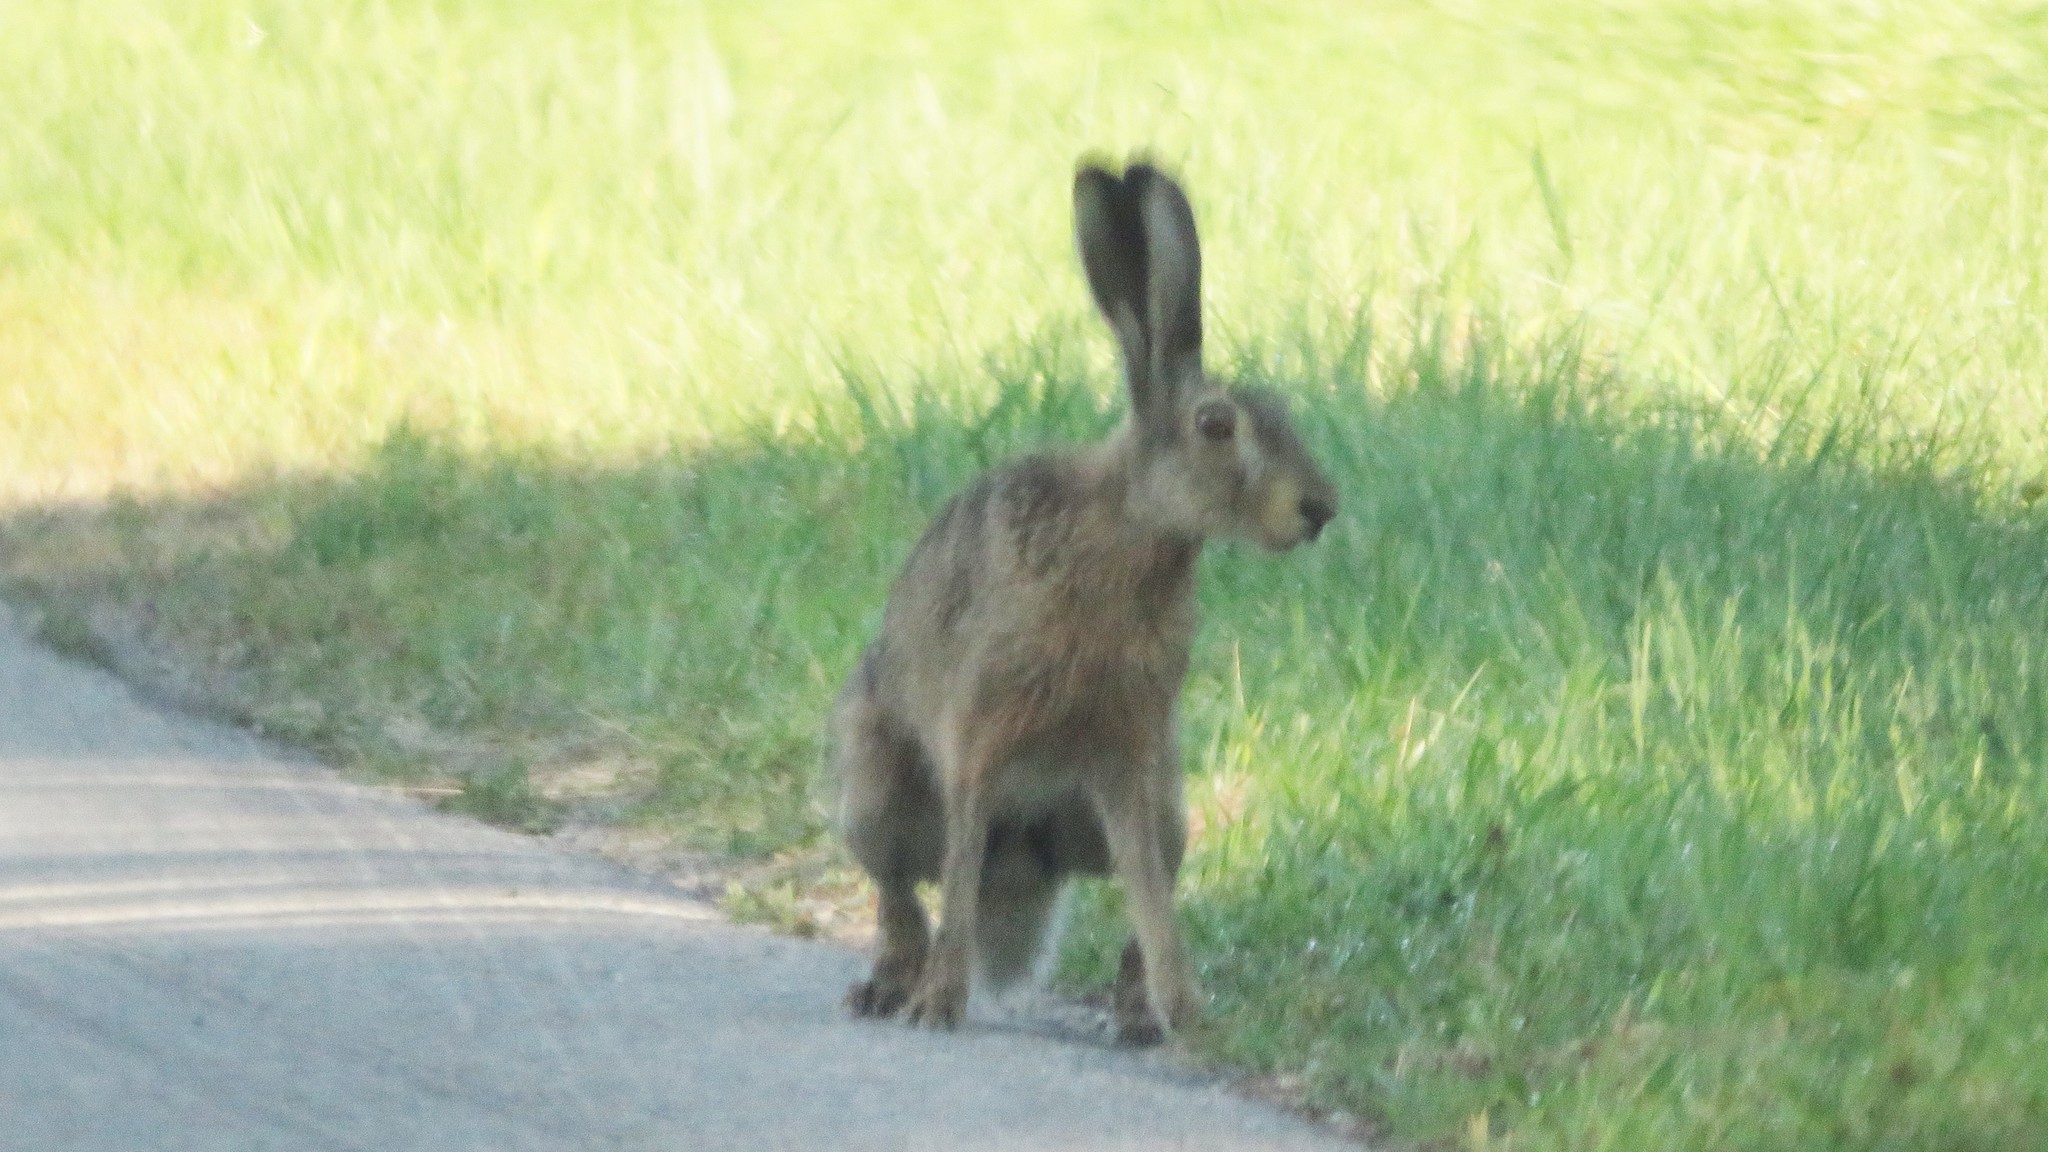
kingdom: Animalia
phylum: Chordata
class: Mammalia
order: Lagomorpha
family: Leporidae
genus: Lepus
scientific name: Lepus europaeus
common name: European hare
